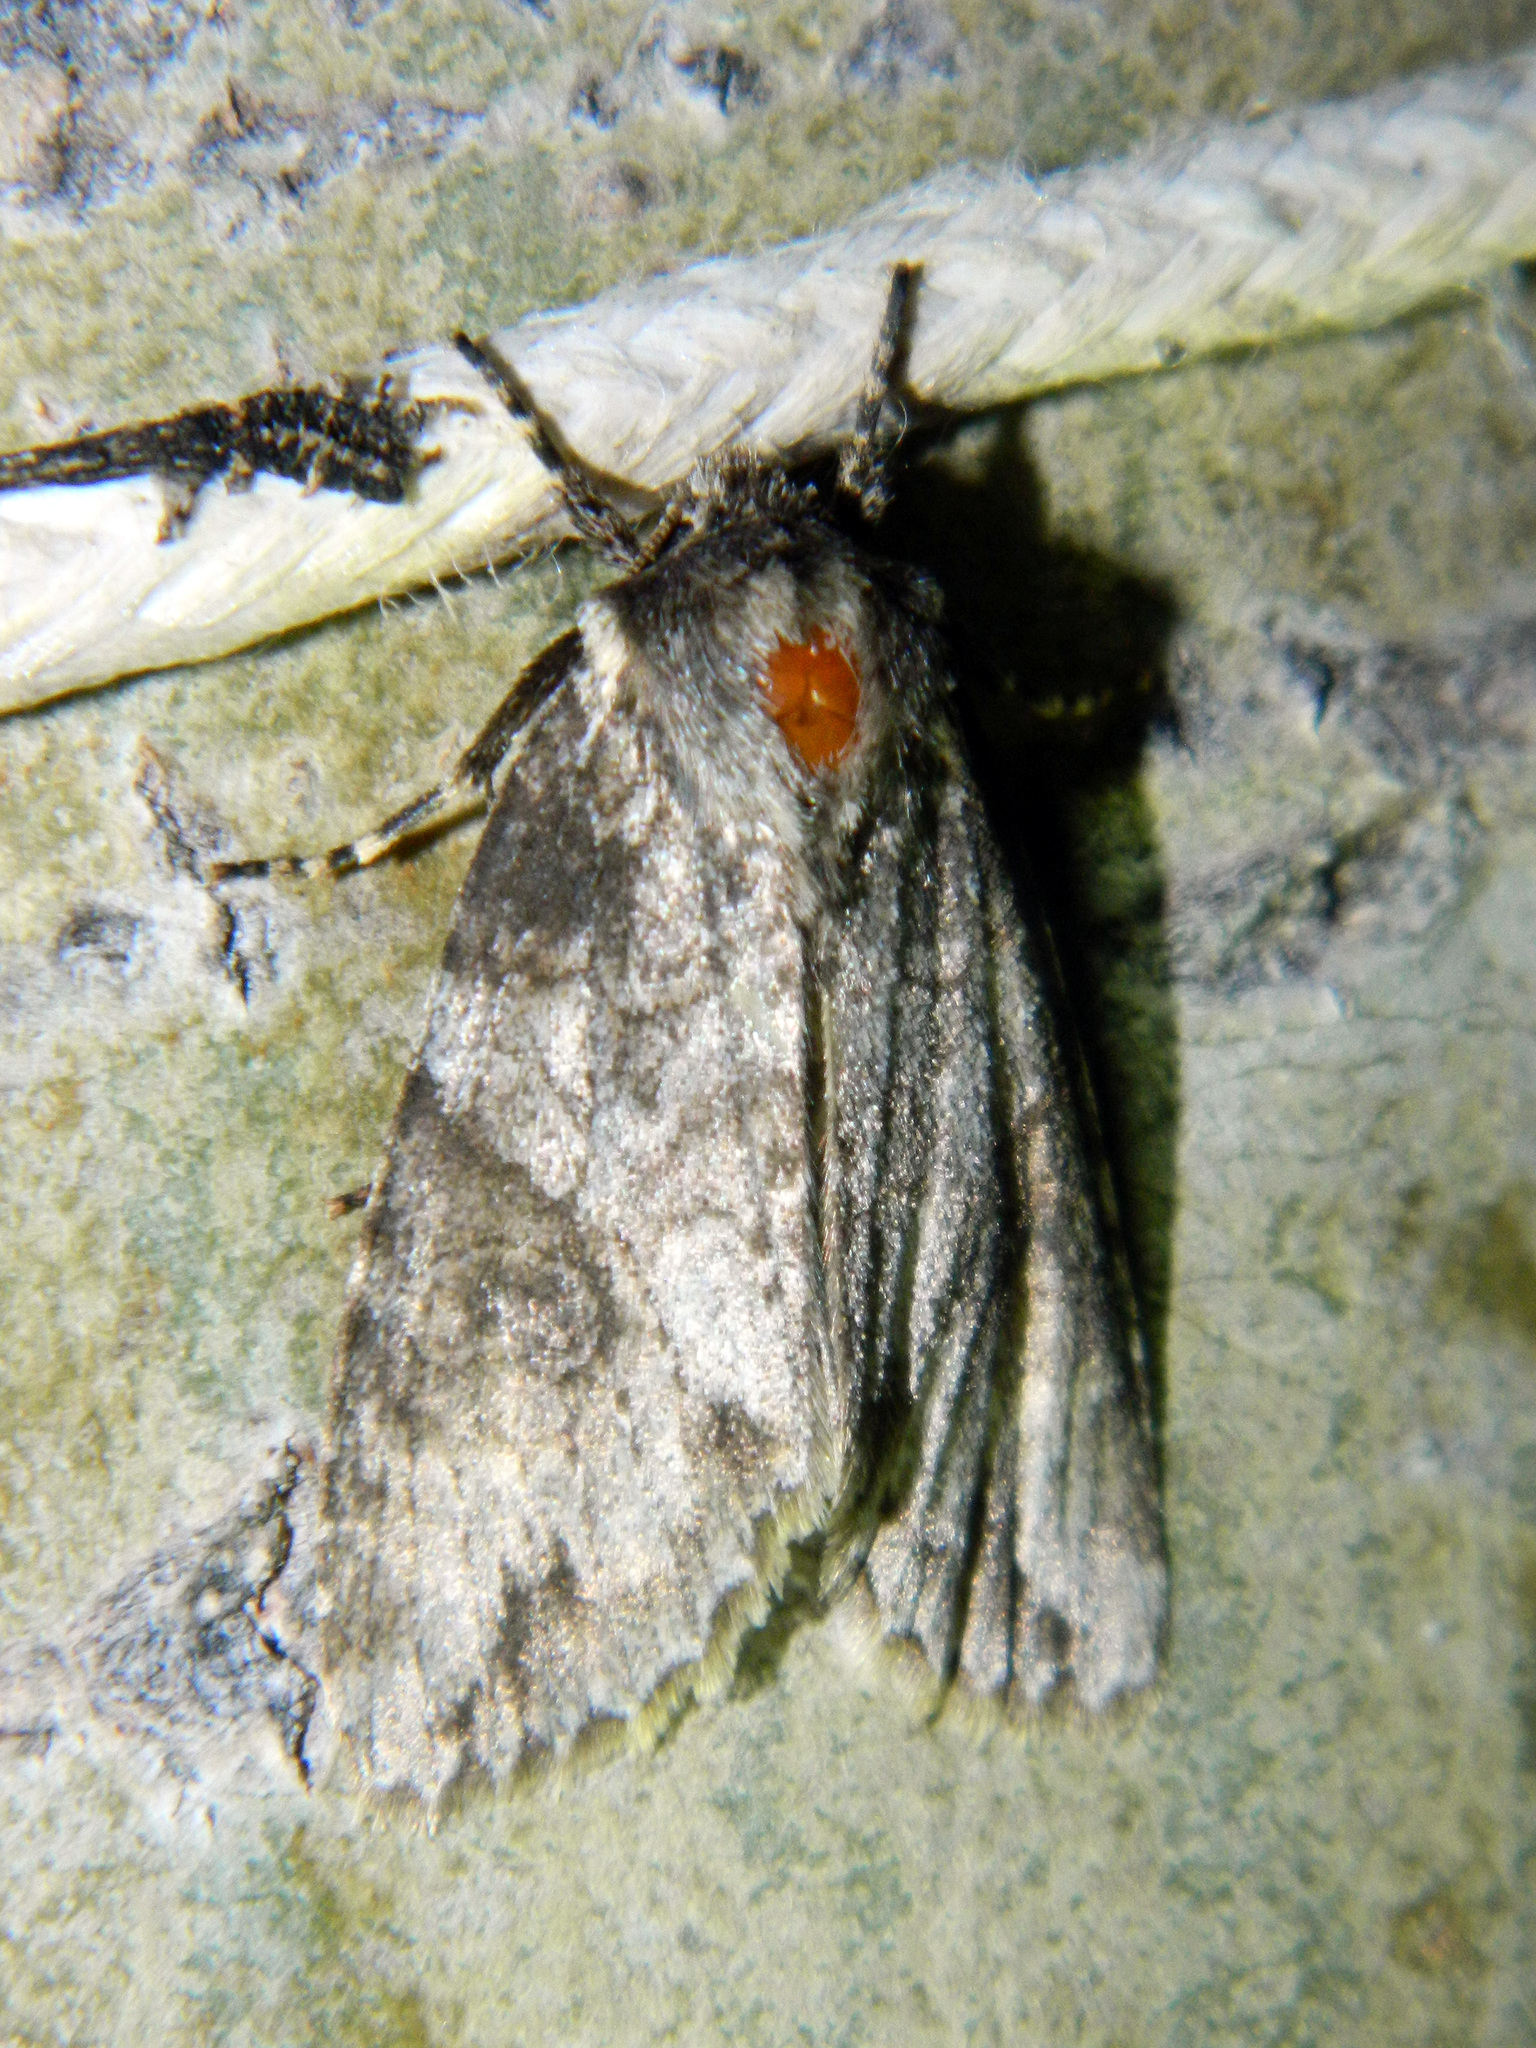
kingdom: Animalia
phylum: Arthropoda
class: Insecta
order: Lepidoptera
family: Noctuidae
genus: Achatia
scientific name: Achatia latex
